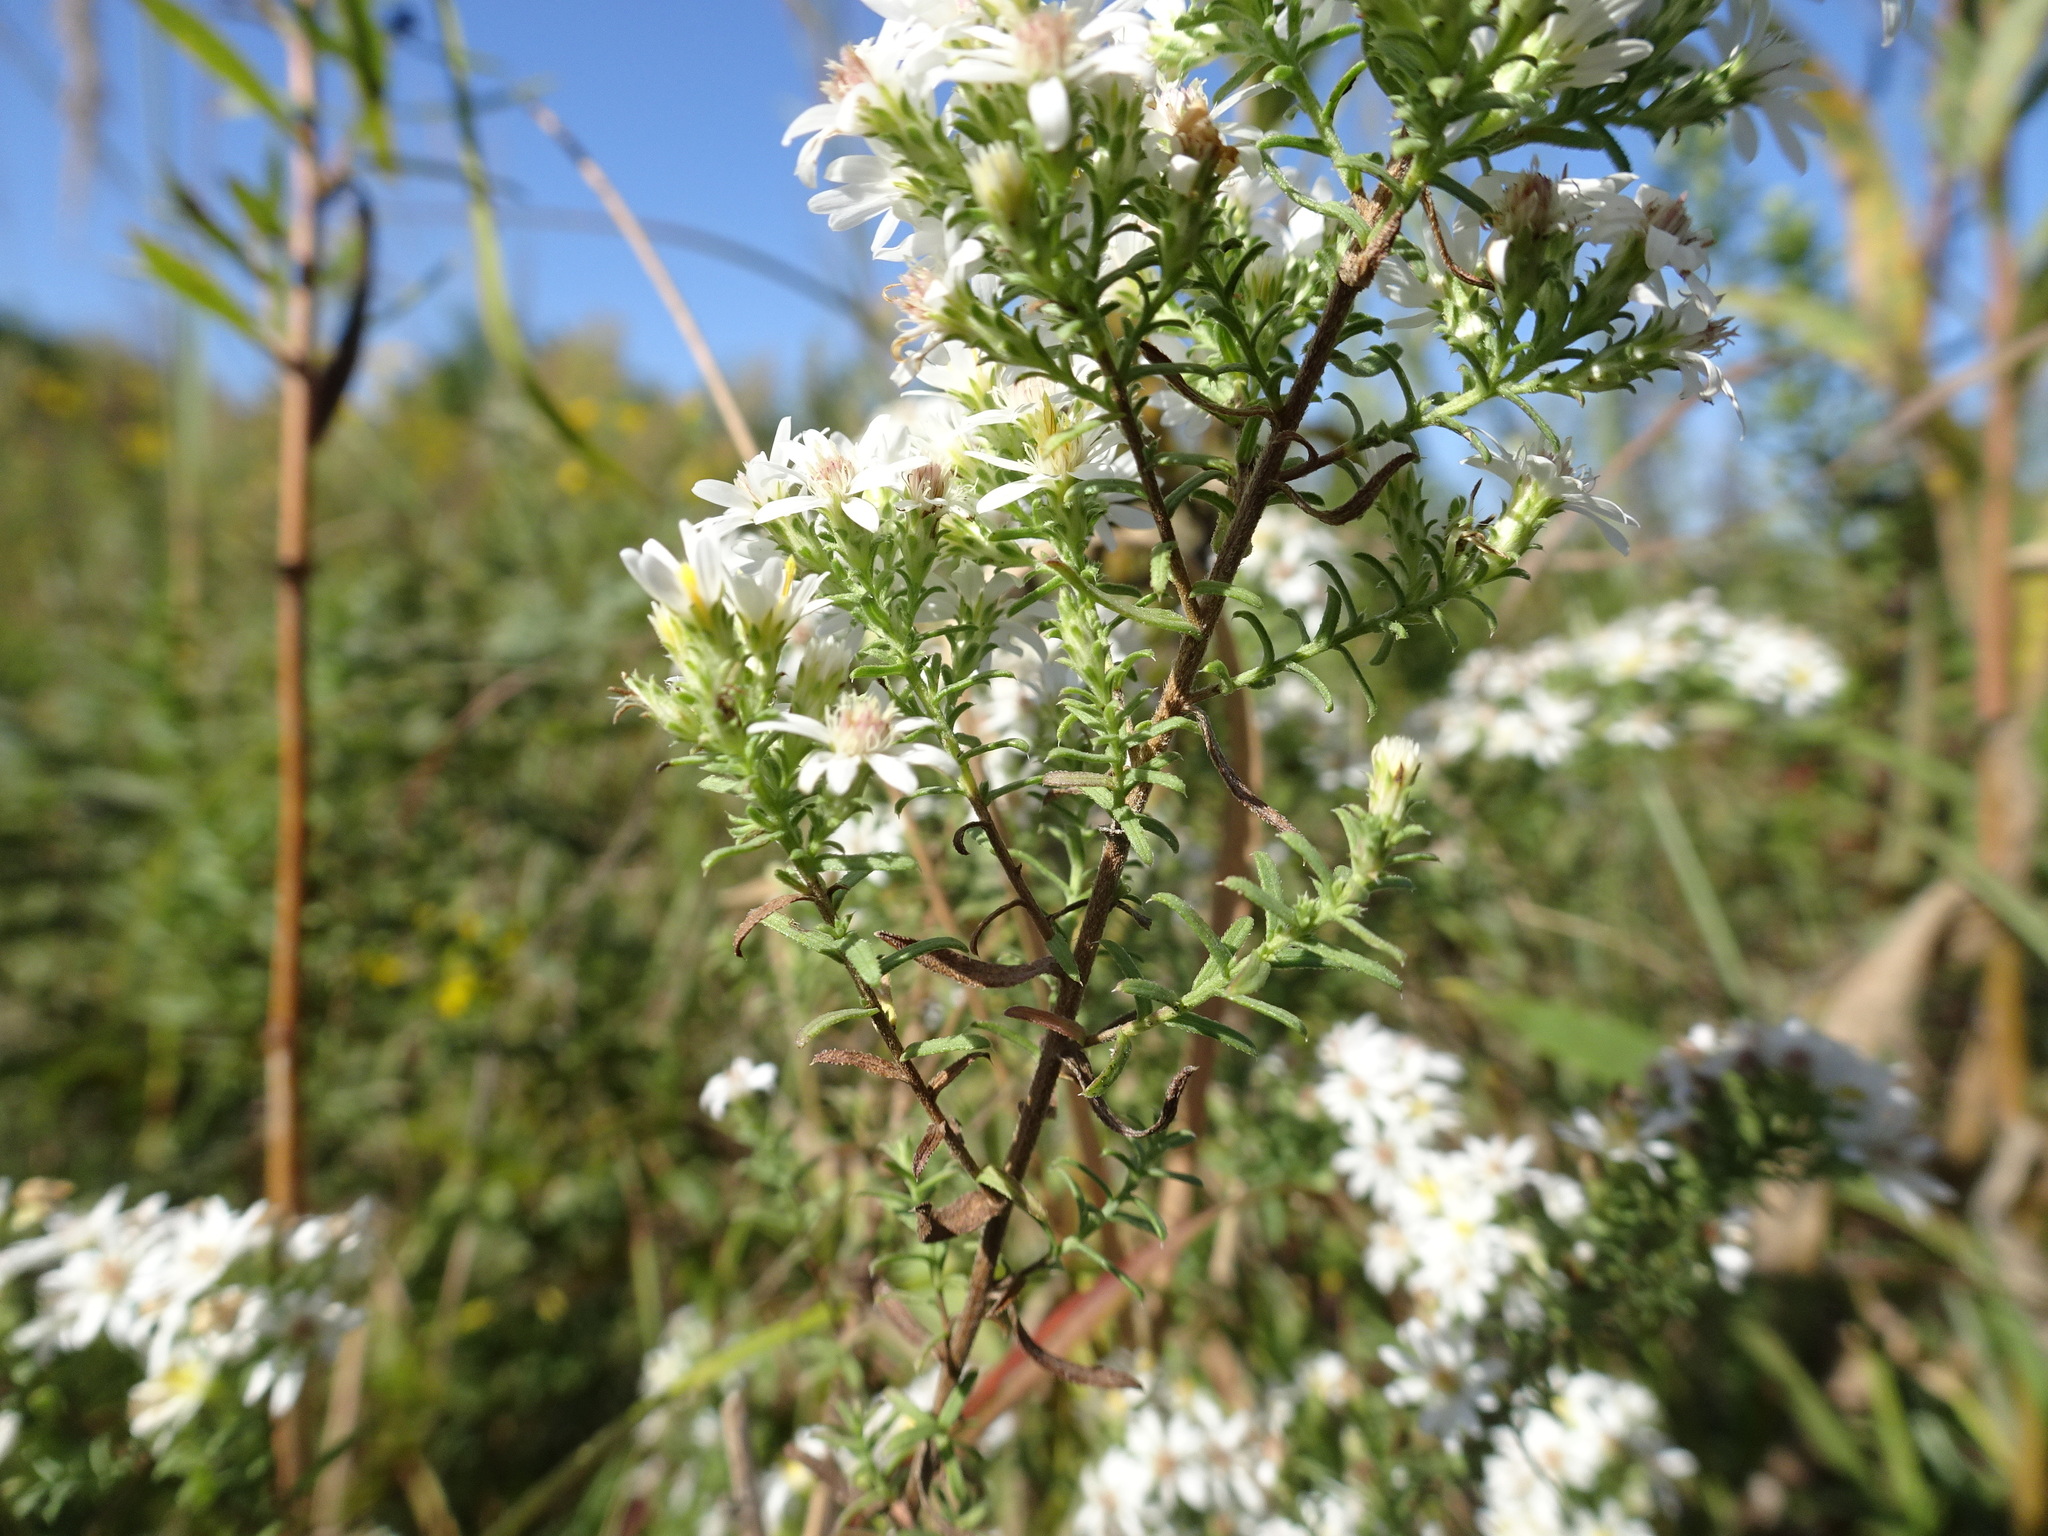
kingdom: Plantae
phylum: Tracheophyta
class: Magnoliopsida
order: Asterales
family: Asteraceae
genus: Symphyotrichum
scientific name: Symphyotrichum ericoides
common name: Heath aster
